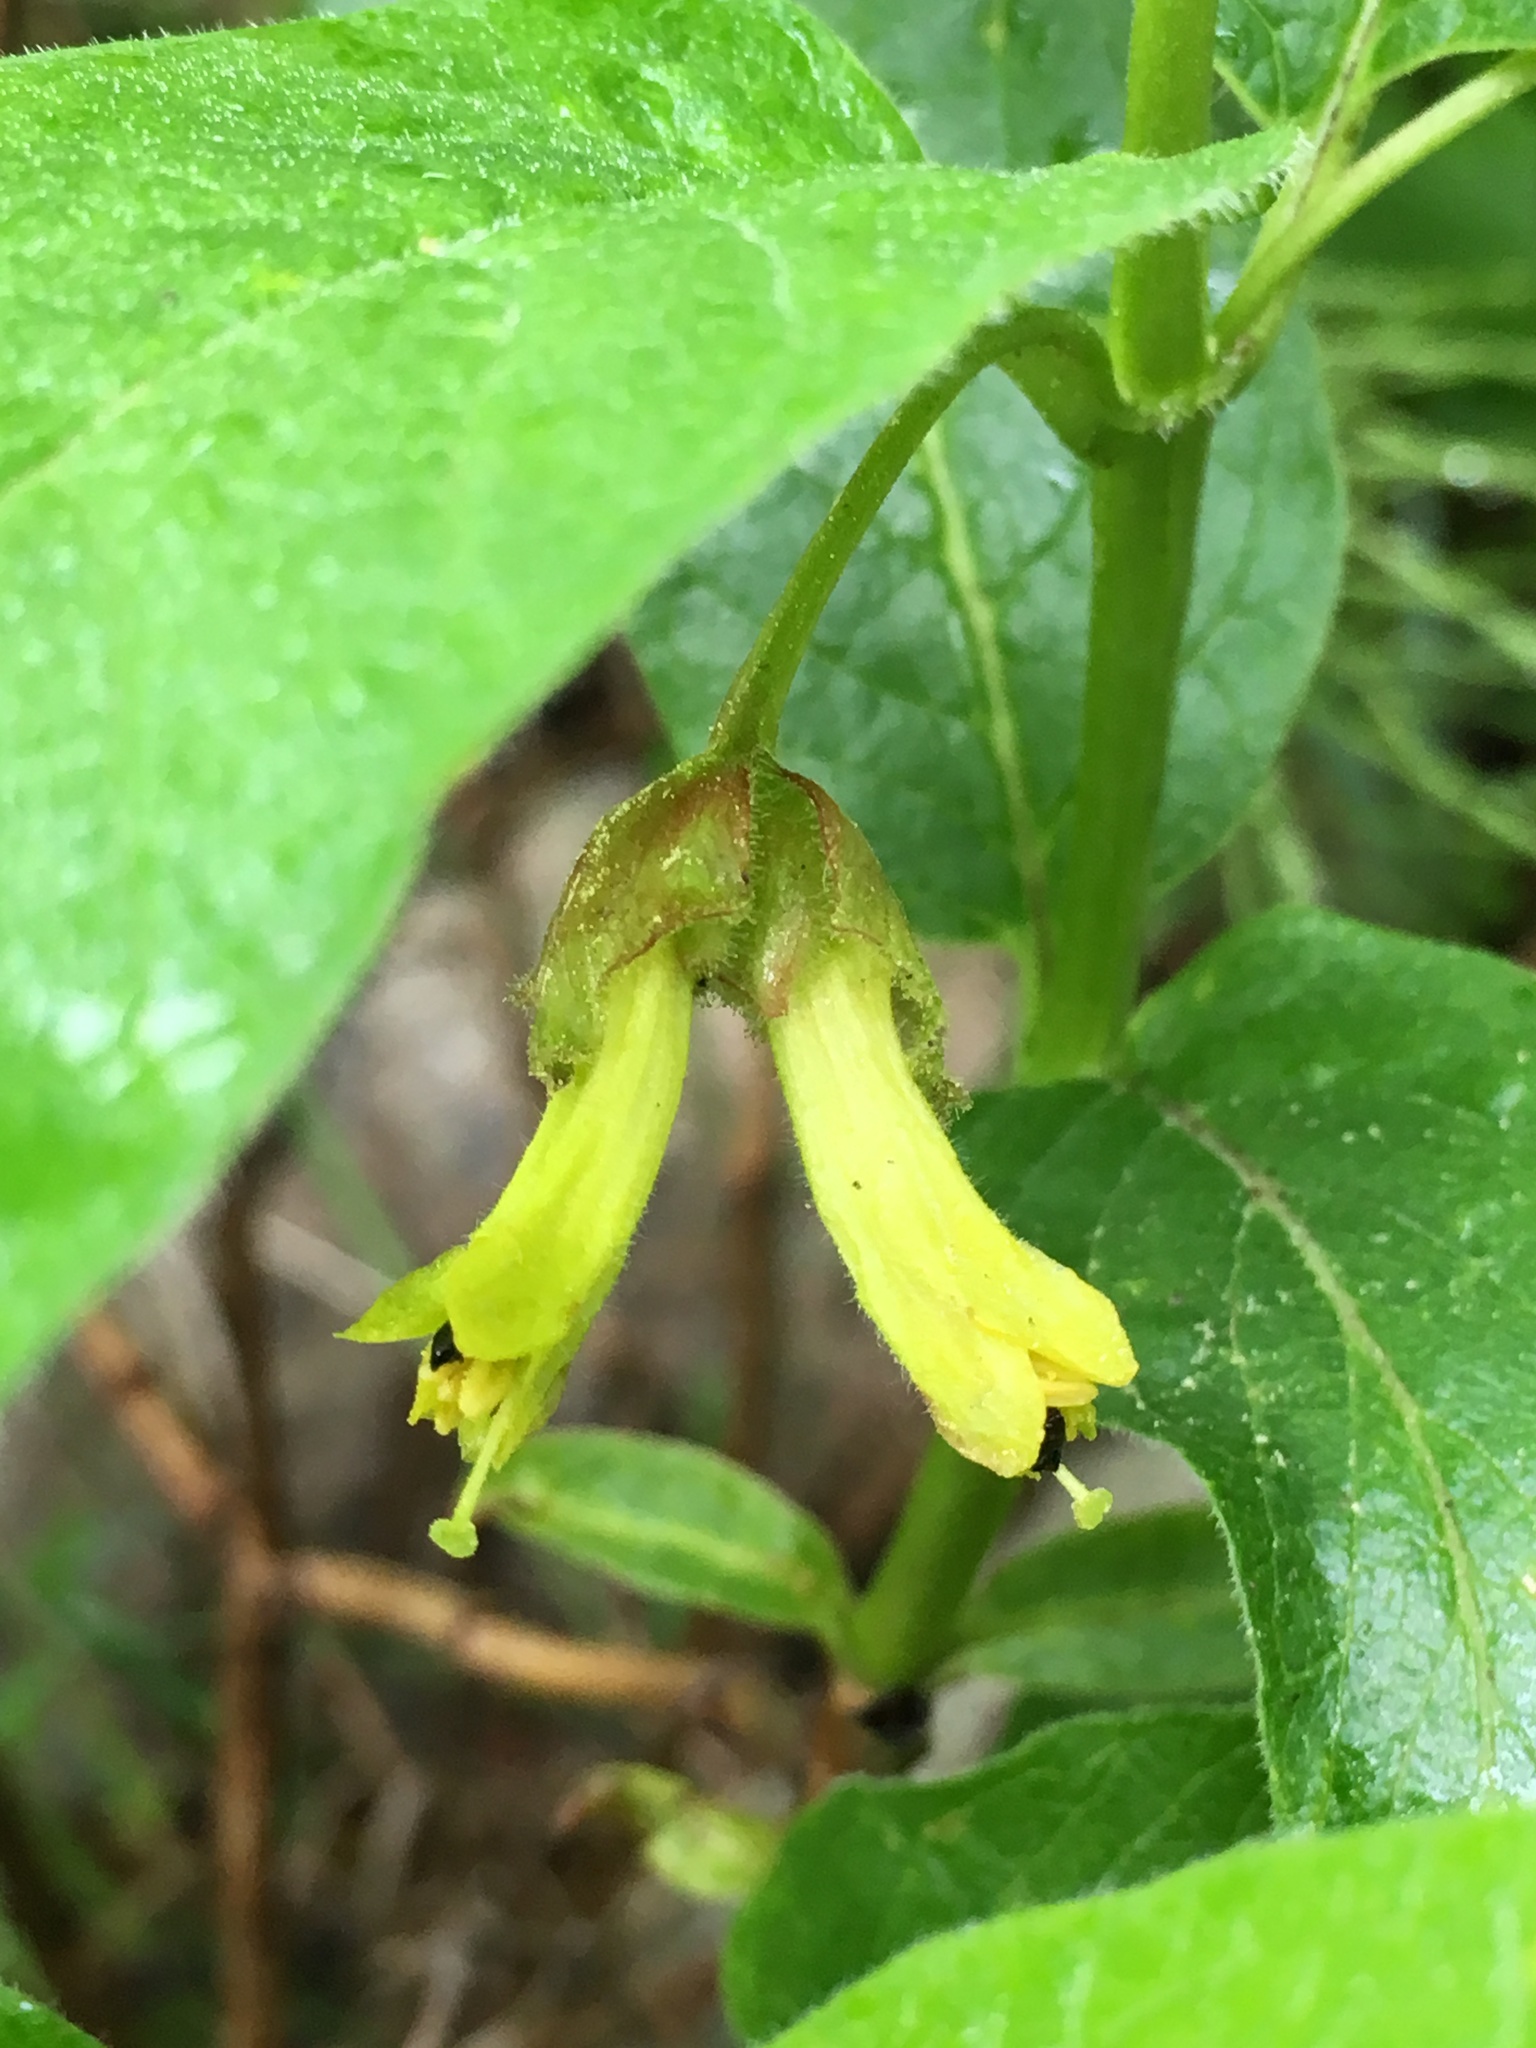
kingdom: Plantae
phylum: Tracheophyta
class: Magnoliopsida
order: Dipsacales
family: Caprifoliaceae
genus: Lonicera
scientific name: Lonicera involucrata
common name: Californian honeysuckle
